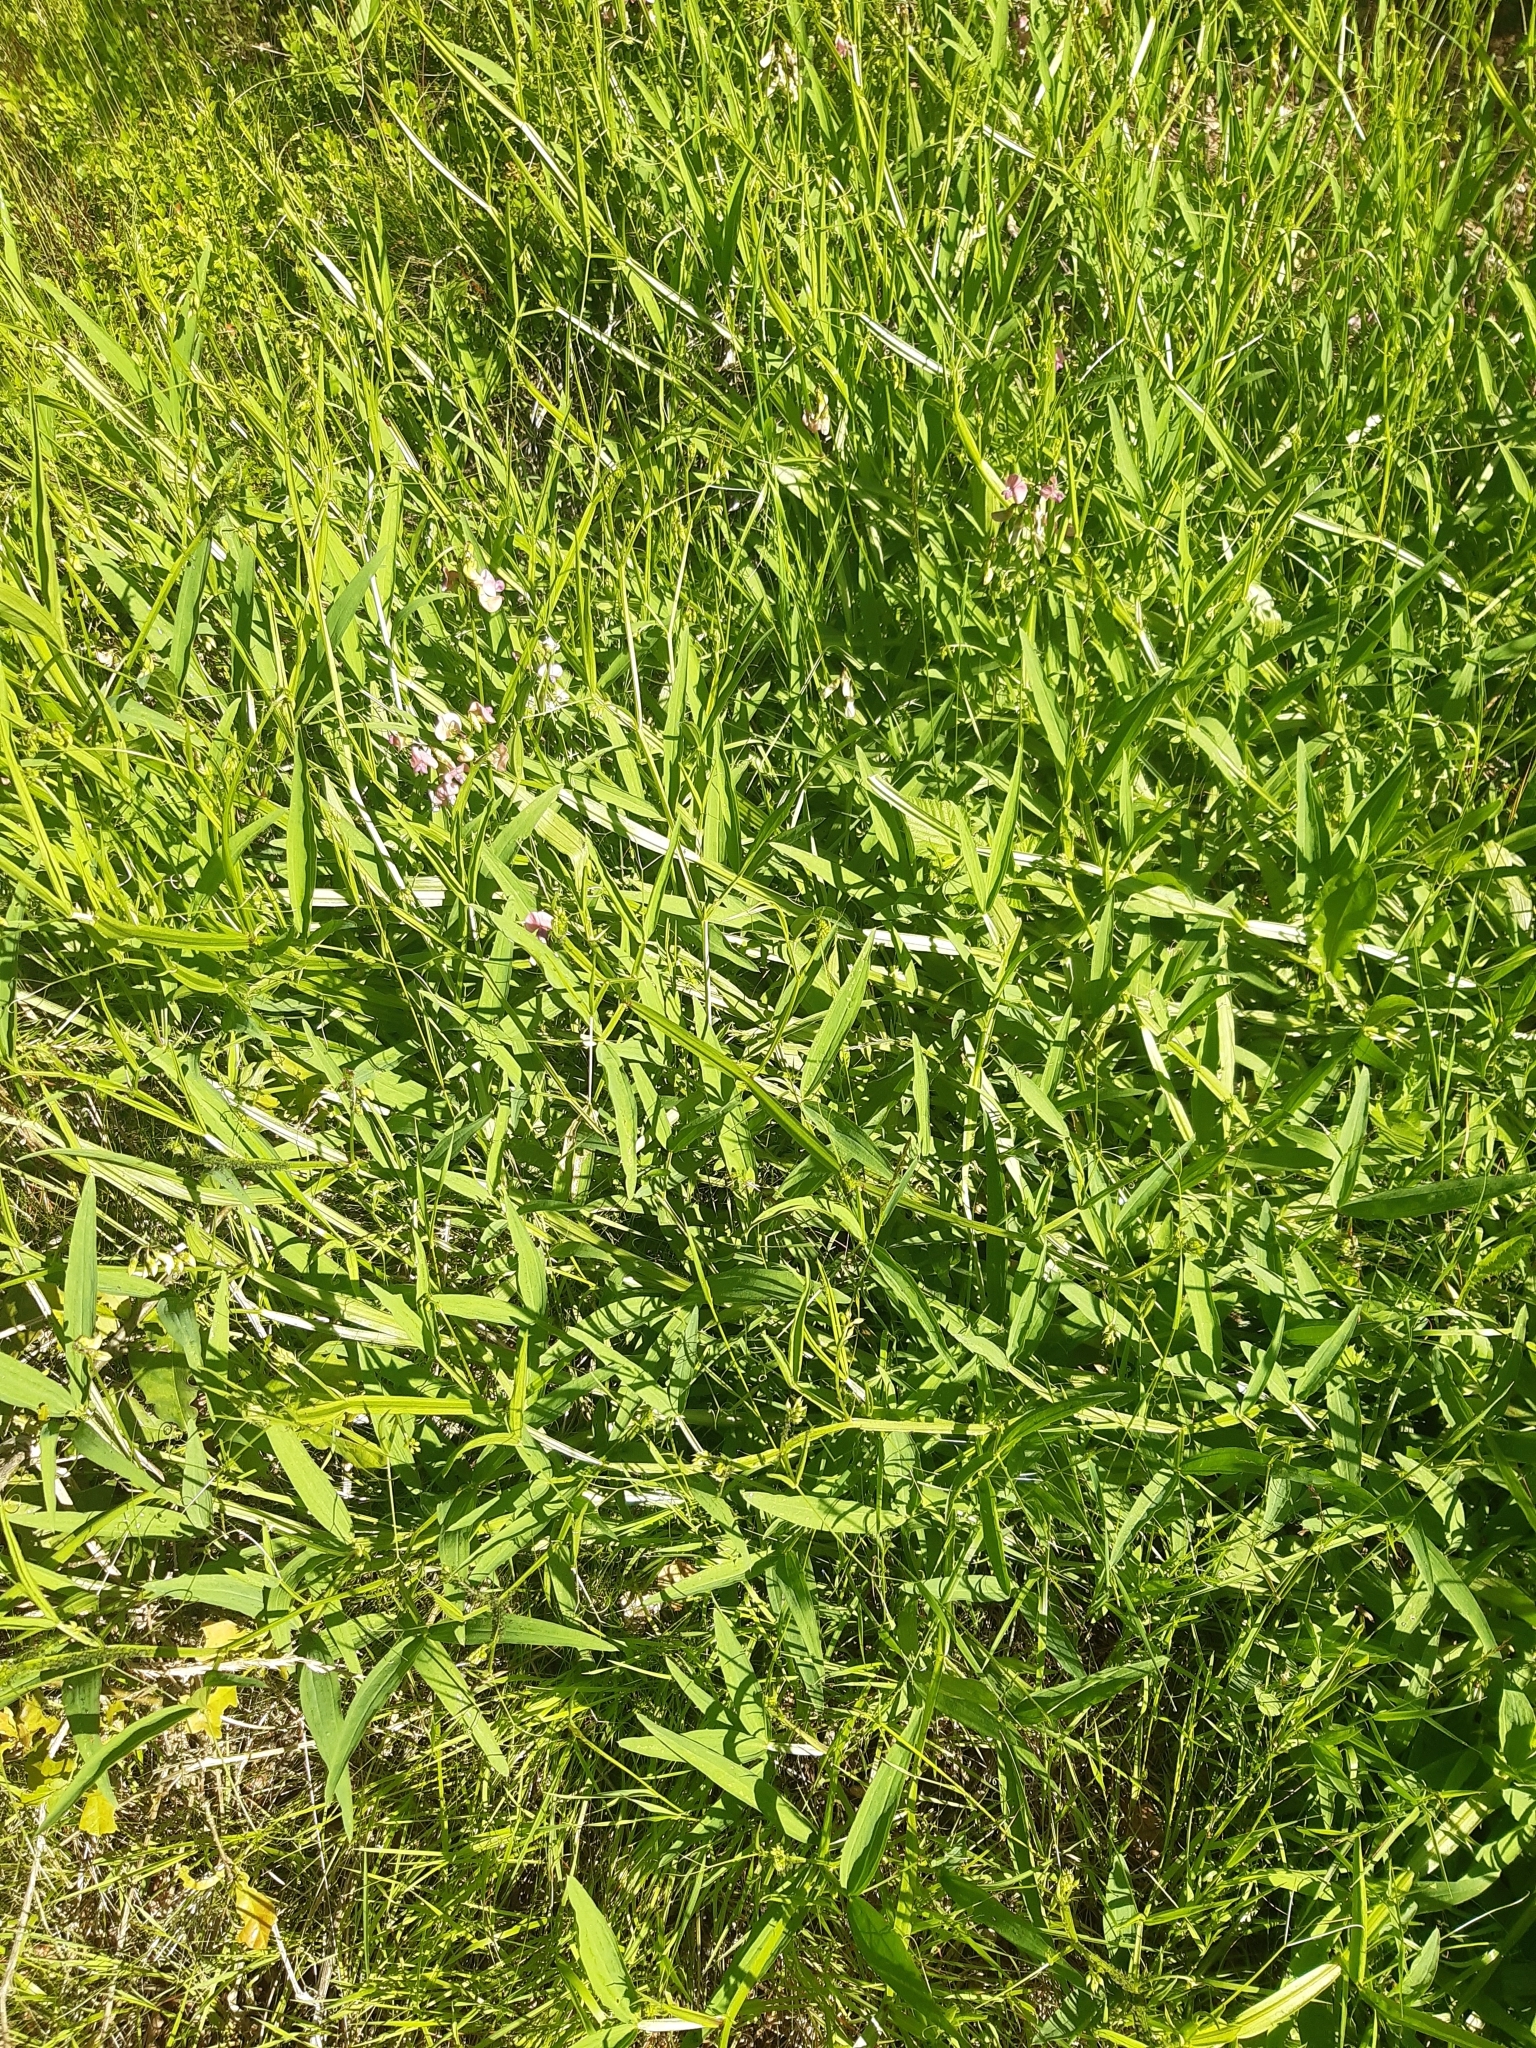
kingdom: Plantae
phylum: Tracheophyta
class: Magnoliopsida
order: Fabales
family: Fabaceae
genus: Lathyrus
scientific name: Lathyrus sylvestris
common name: Flat pea
